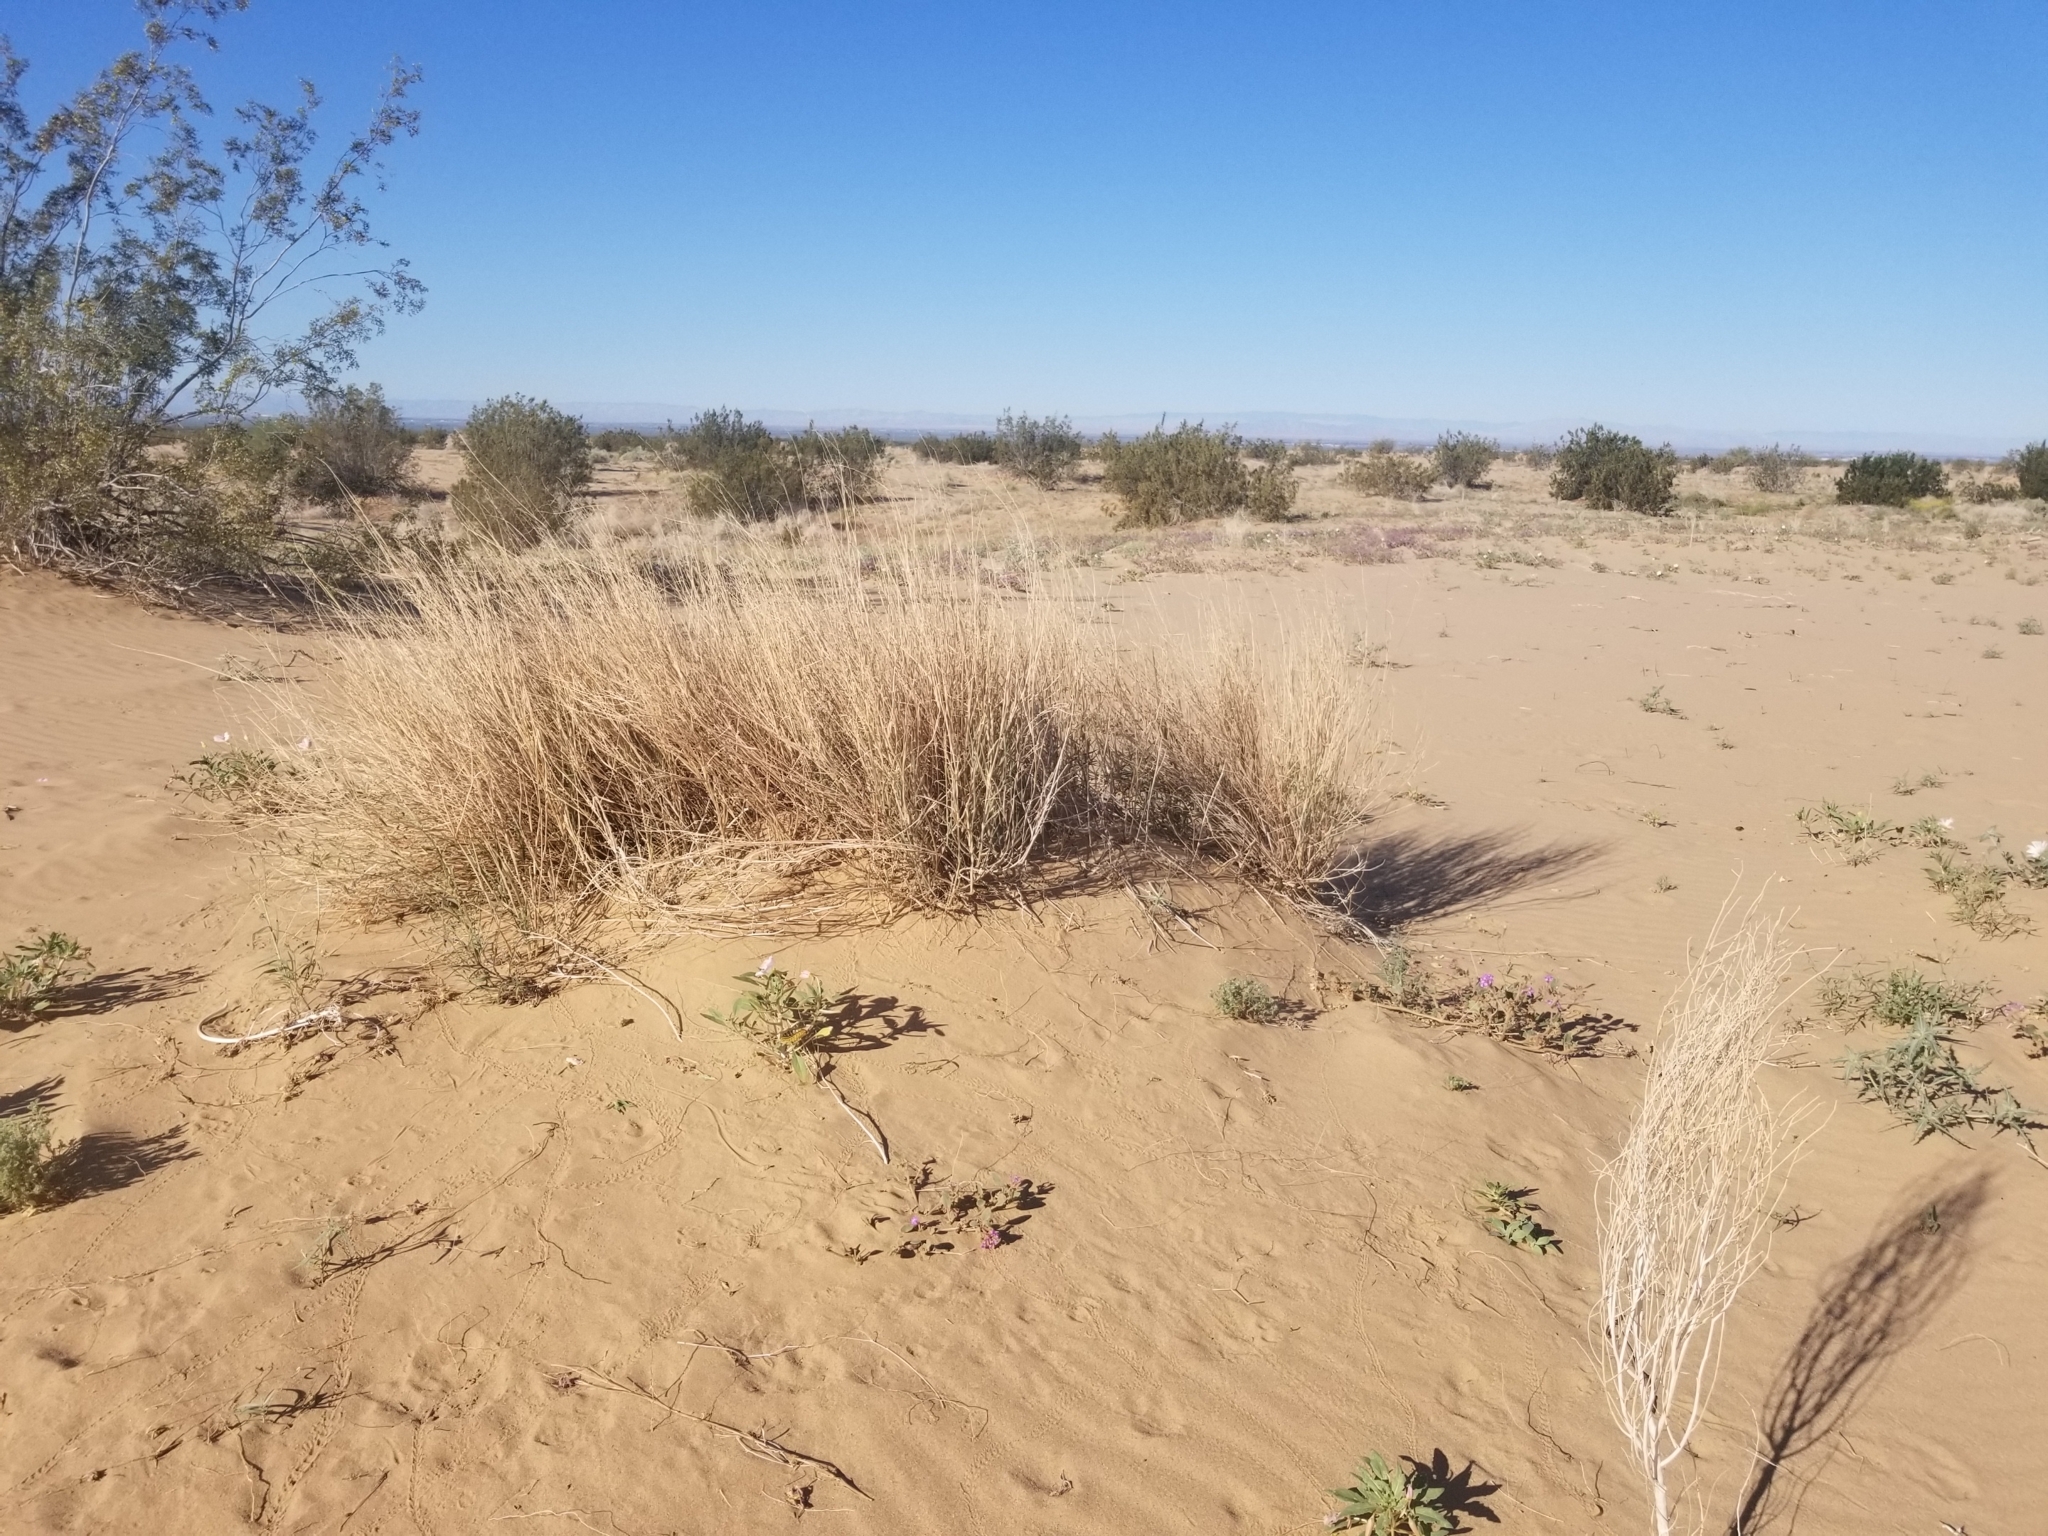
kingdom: Plantae
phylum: Tracheophyta
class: Liliopsida
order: Poales
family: Poaceae
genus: Hilaria
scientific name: Hilaria rigida
